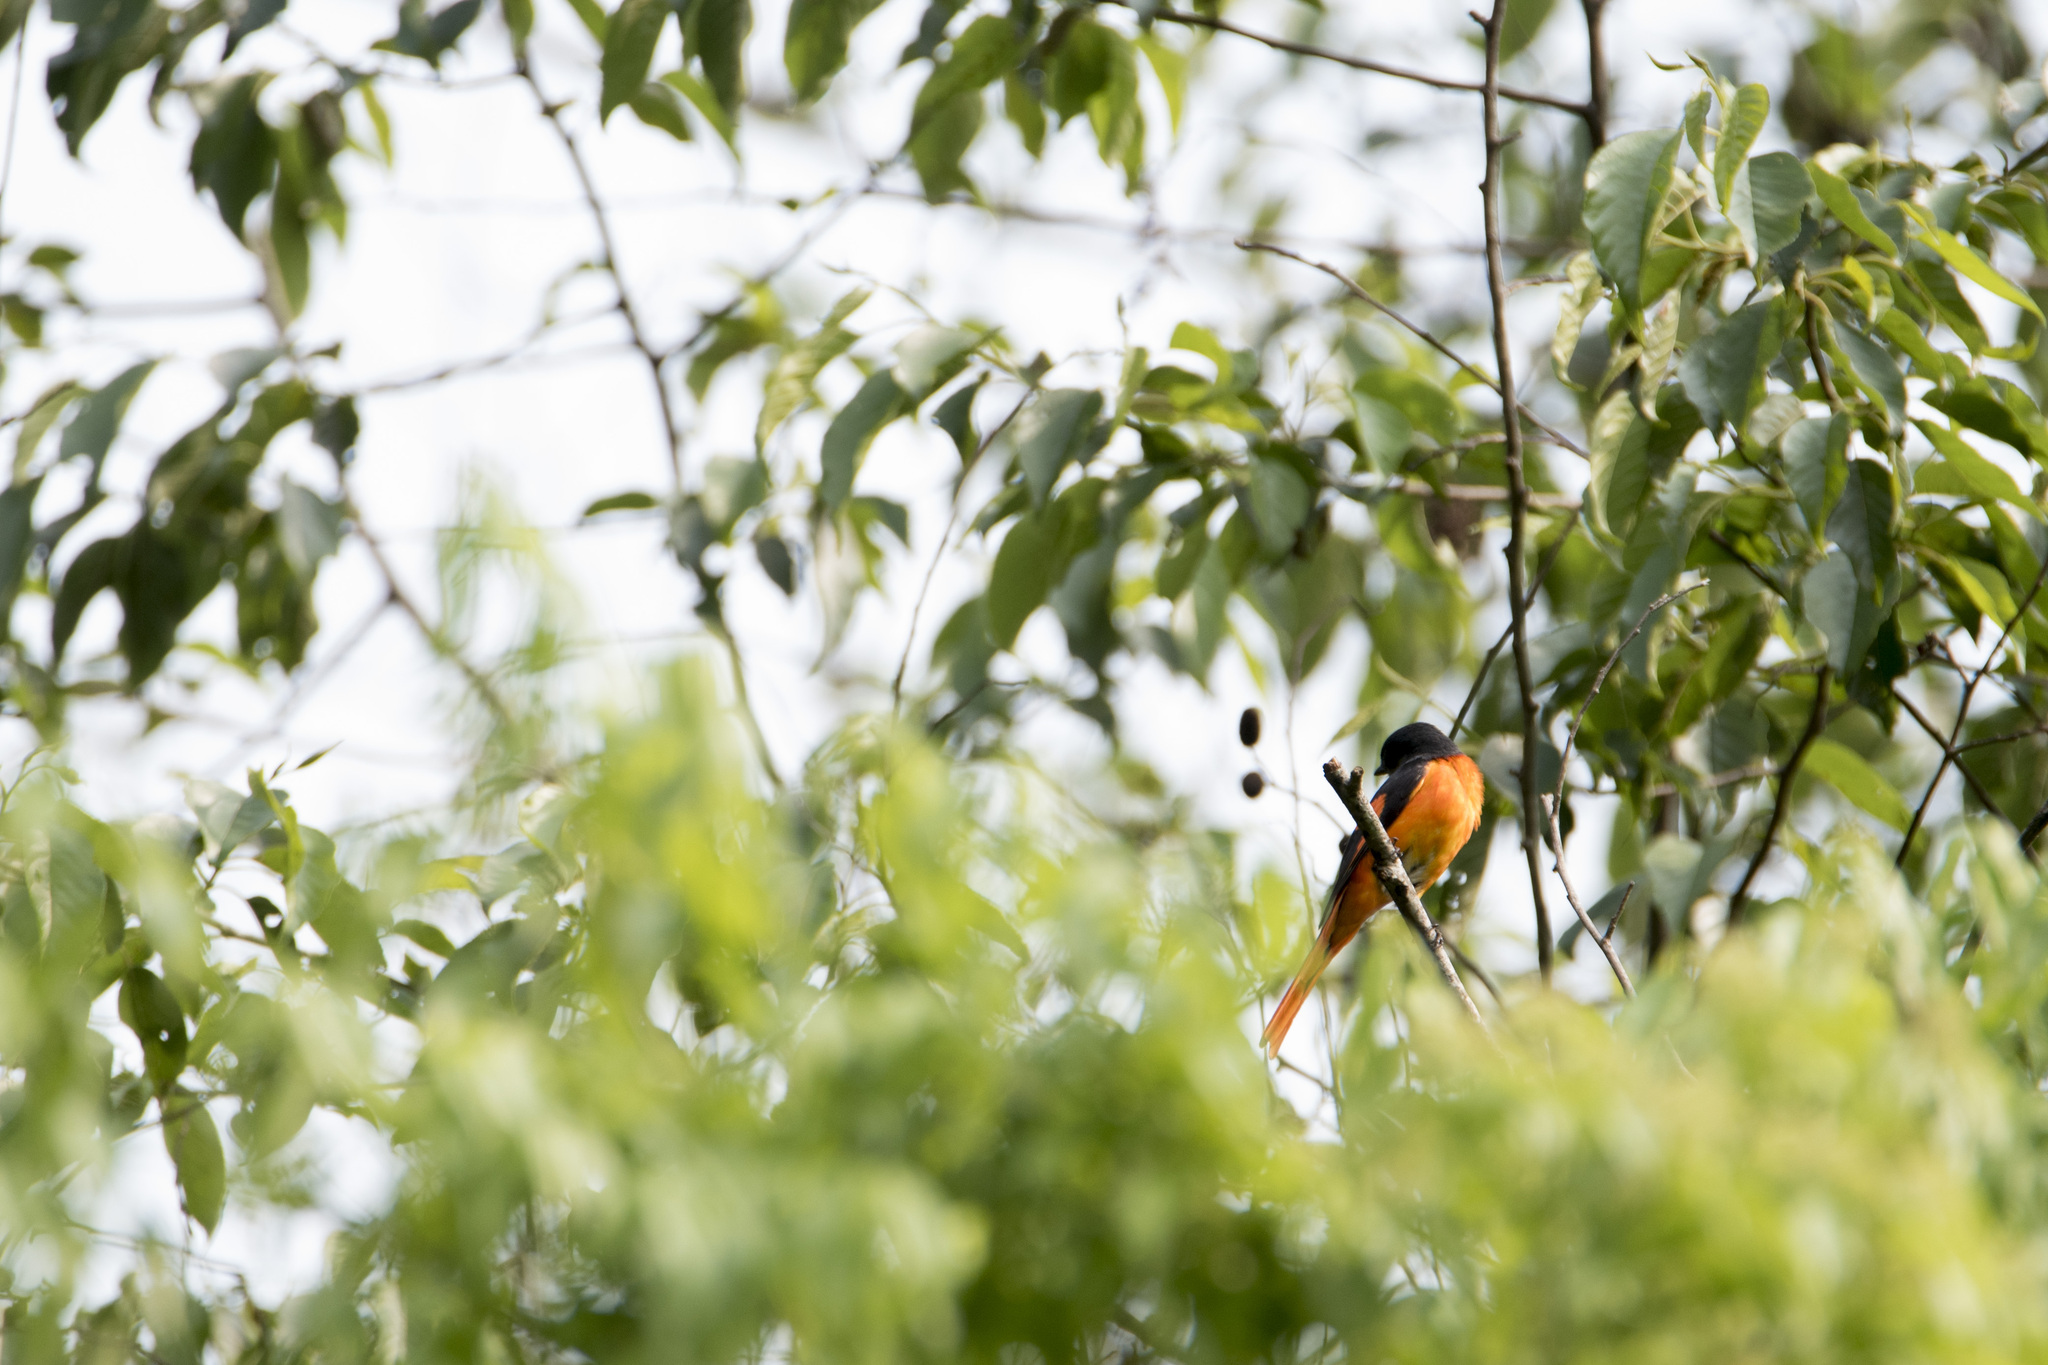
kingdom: Animalia
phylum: Chordata
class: Aves
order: Passeriformes
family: Campephagidae
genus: Pericrocotus
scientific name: Pericrocotus solaris
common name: Grey-chinned minivet
